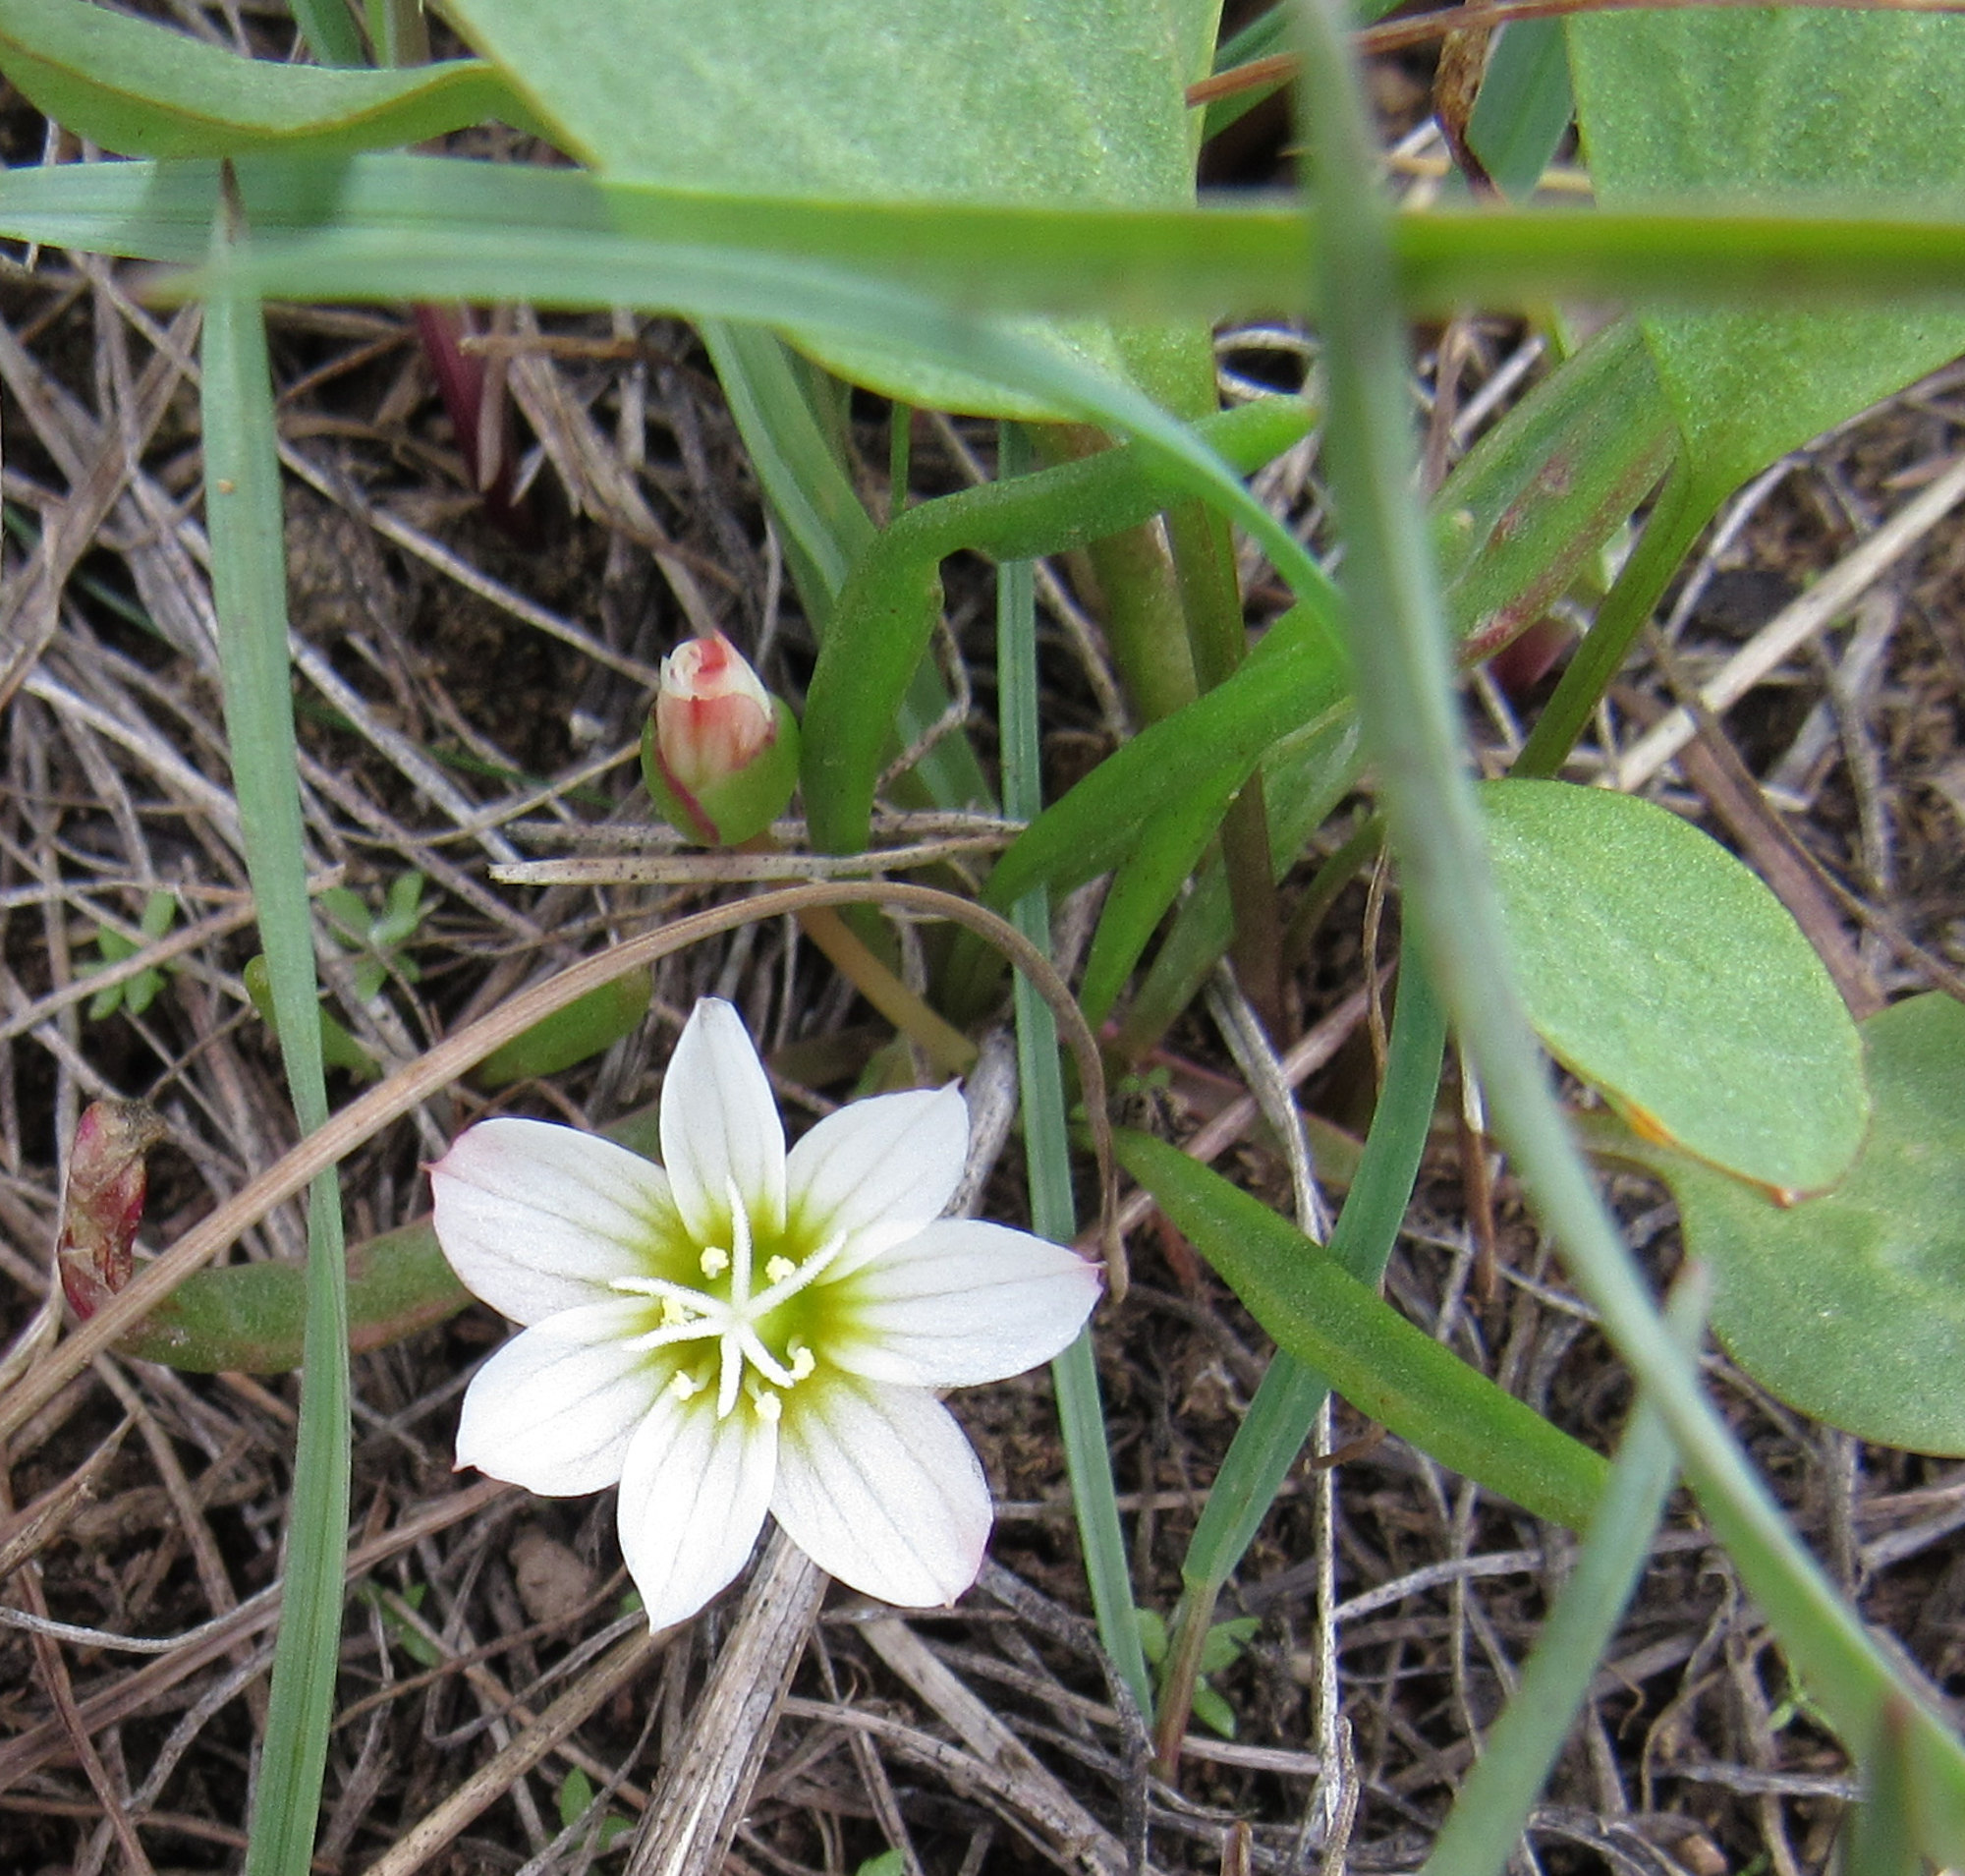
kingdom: Plantae
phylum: Tracheophyta
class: Magnoliopsida
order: Caryophyllales
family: Montiaceae
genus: Lewisia
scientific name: Lewisia nevadensis
